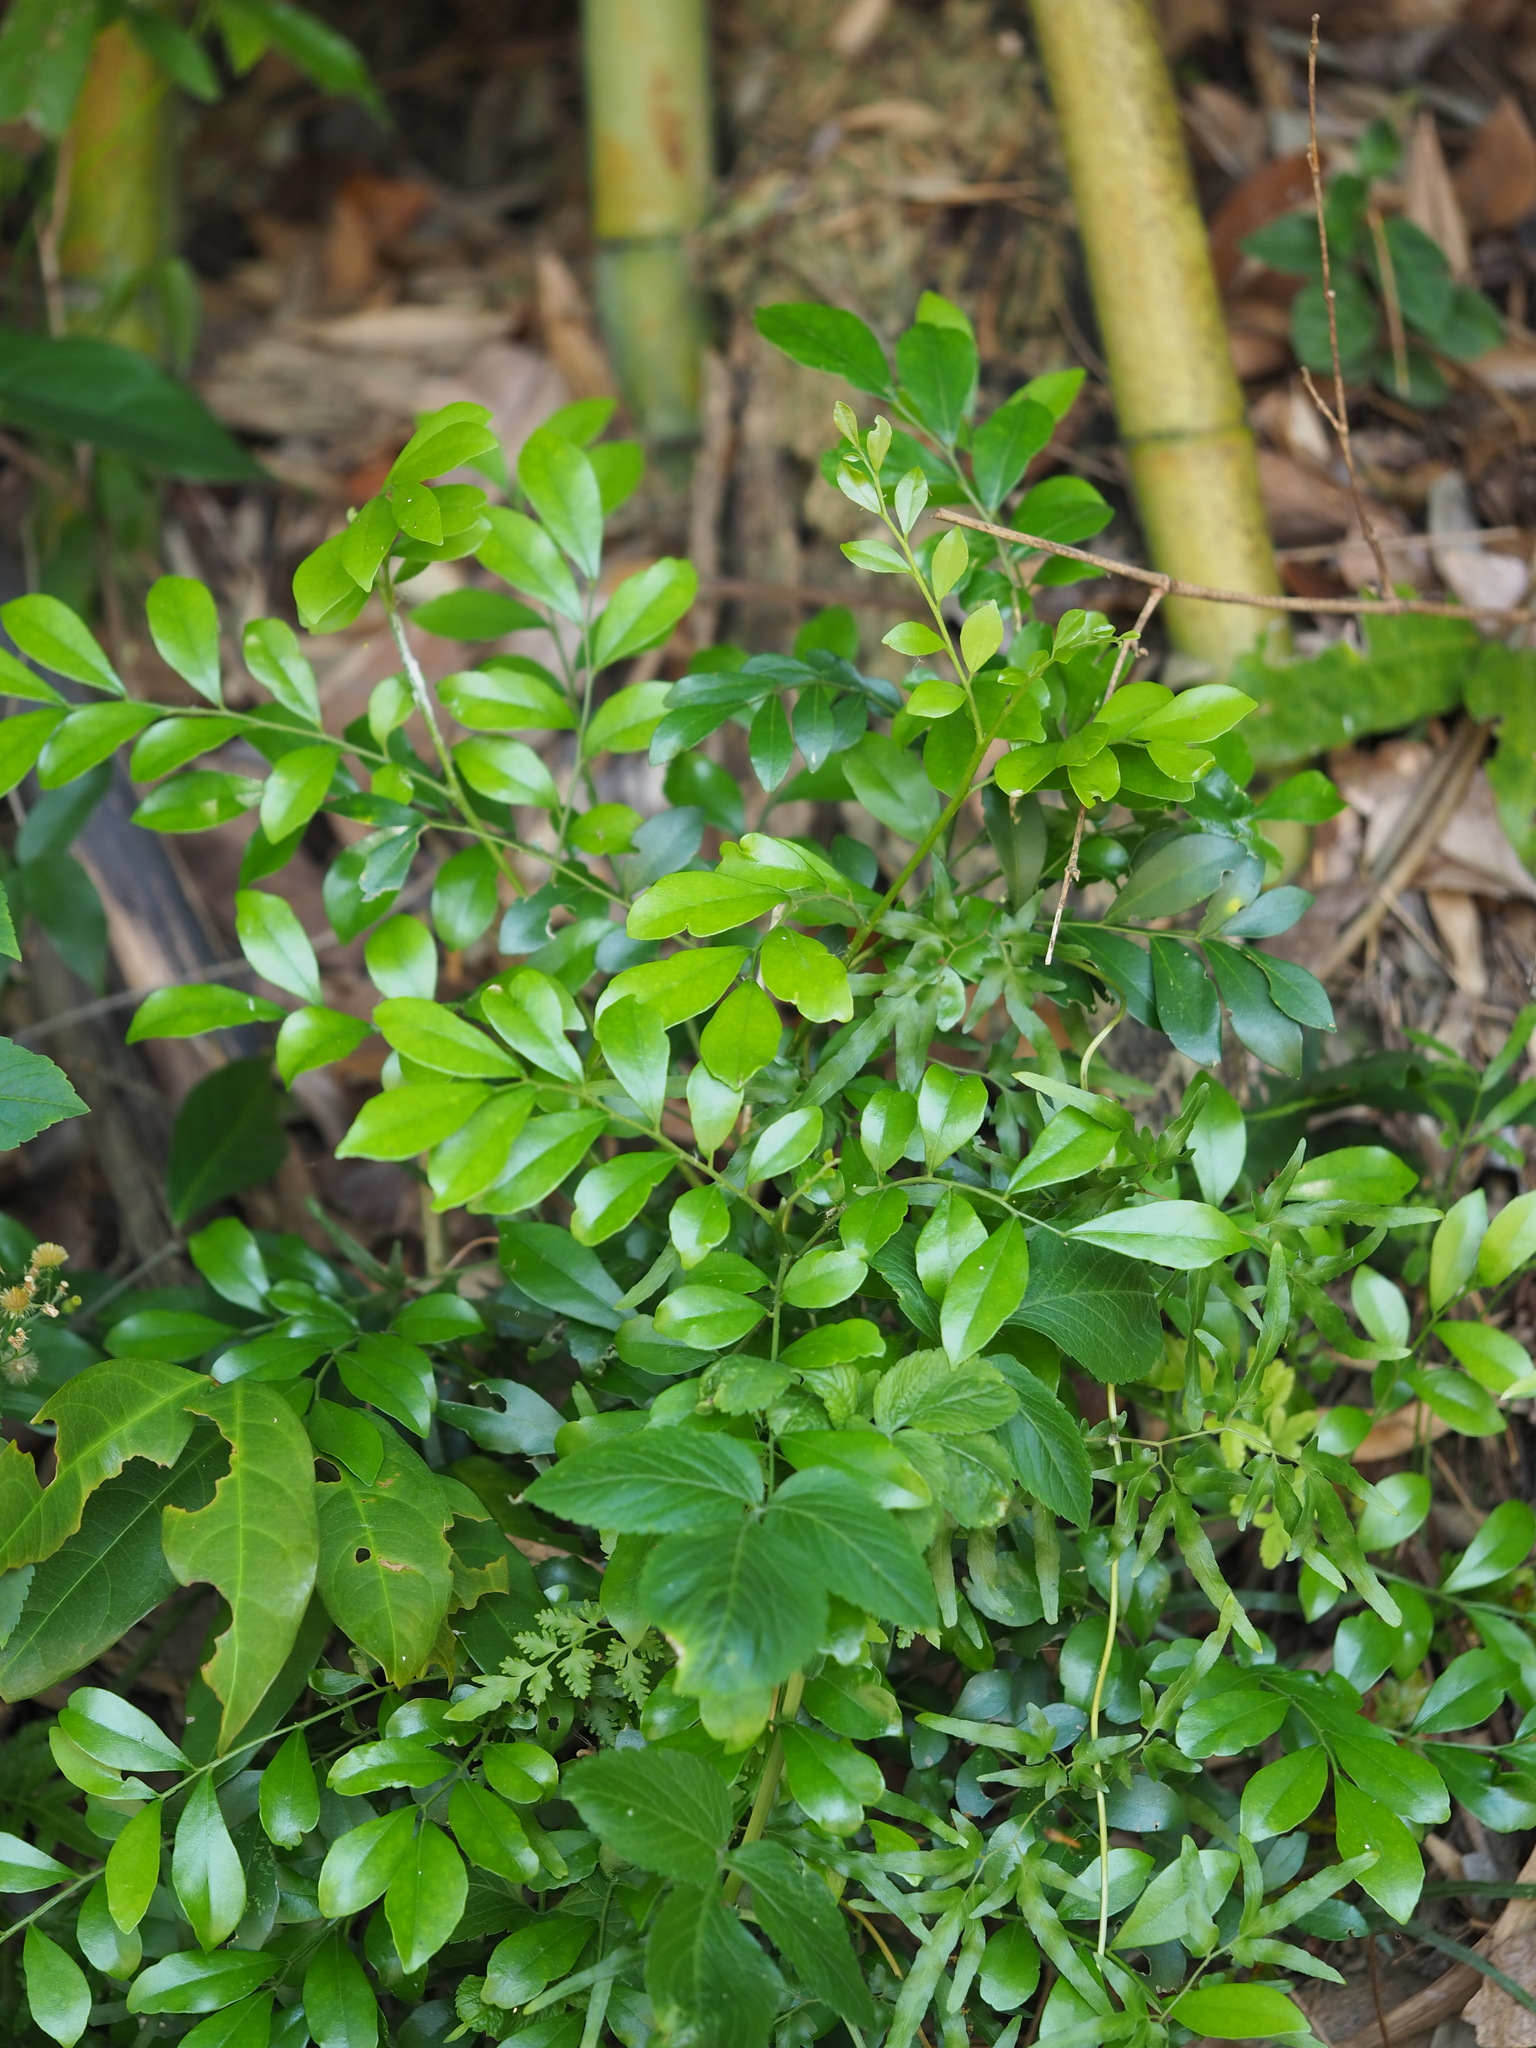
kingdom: Plantae
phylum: Tracheophyta
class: Magnoliopsida
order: Sapindales
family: Rutaceae
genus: Murraya
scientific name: Murraya paniculata
